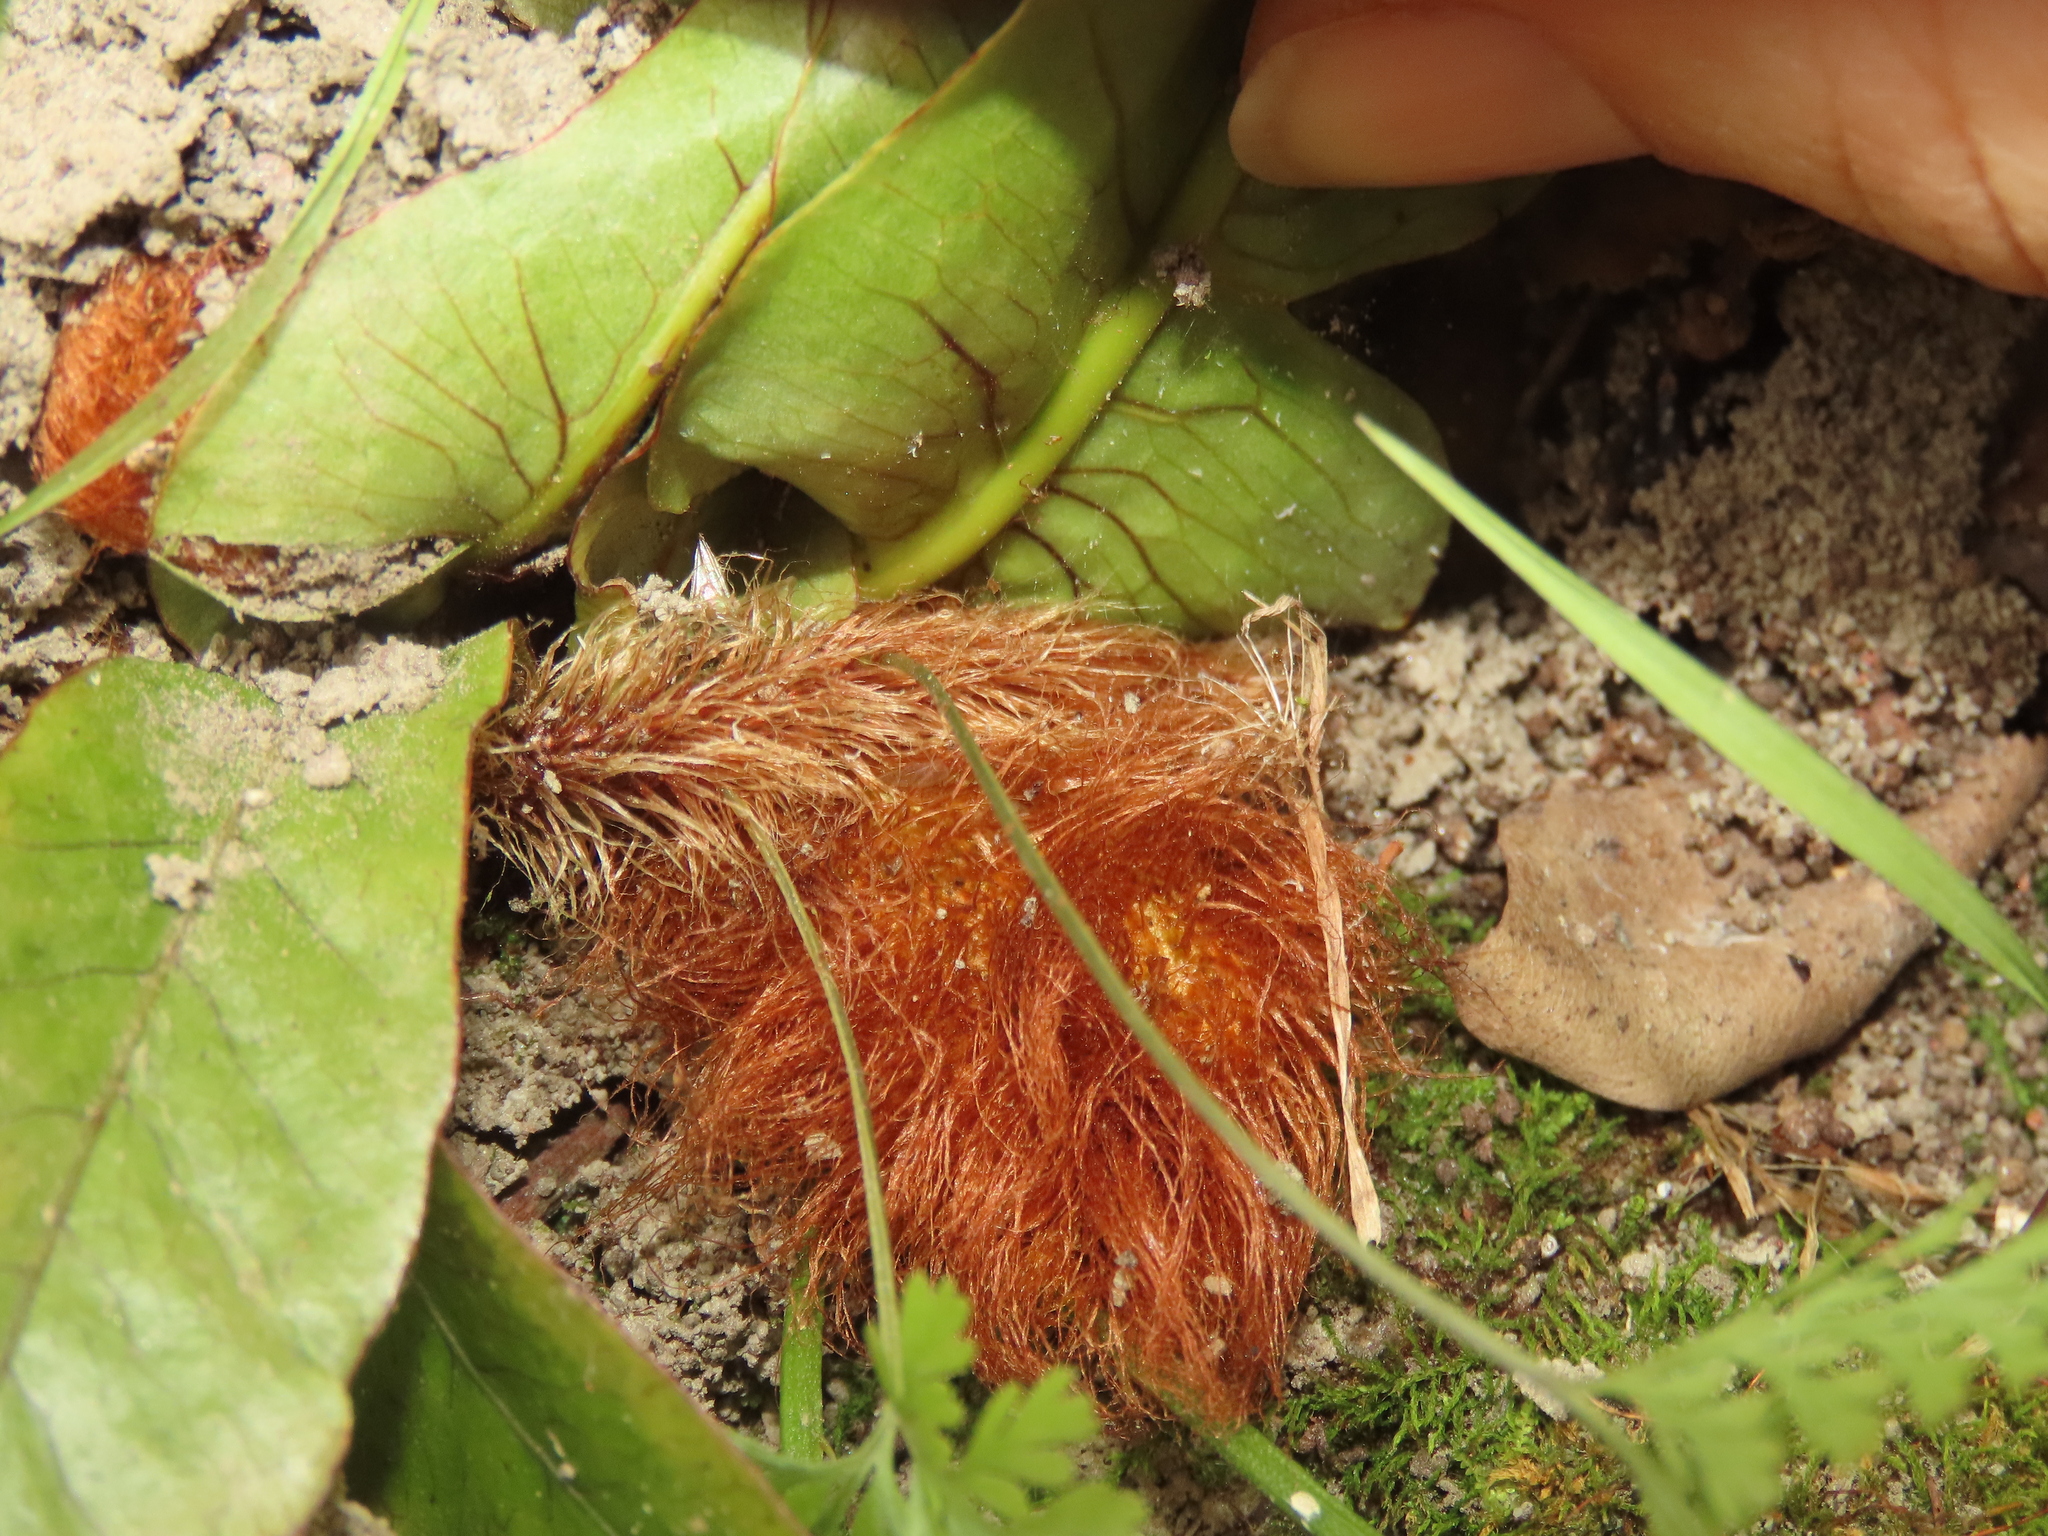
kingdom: Plantae
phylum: Tracheophyta
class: Polypodiopsida
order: Polypodiales
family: Davalliaceae
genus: Davallia
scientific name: Davallia trichomanoides
